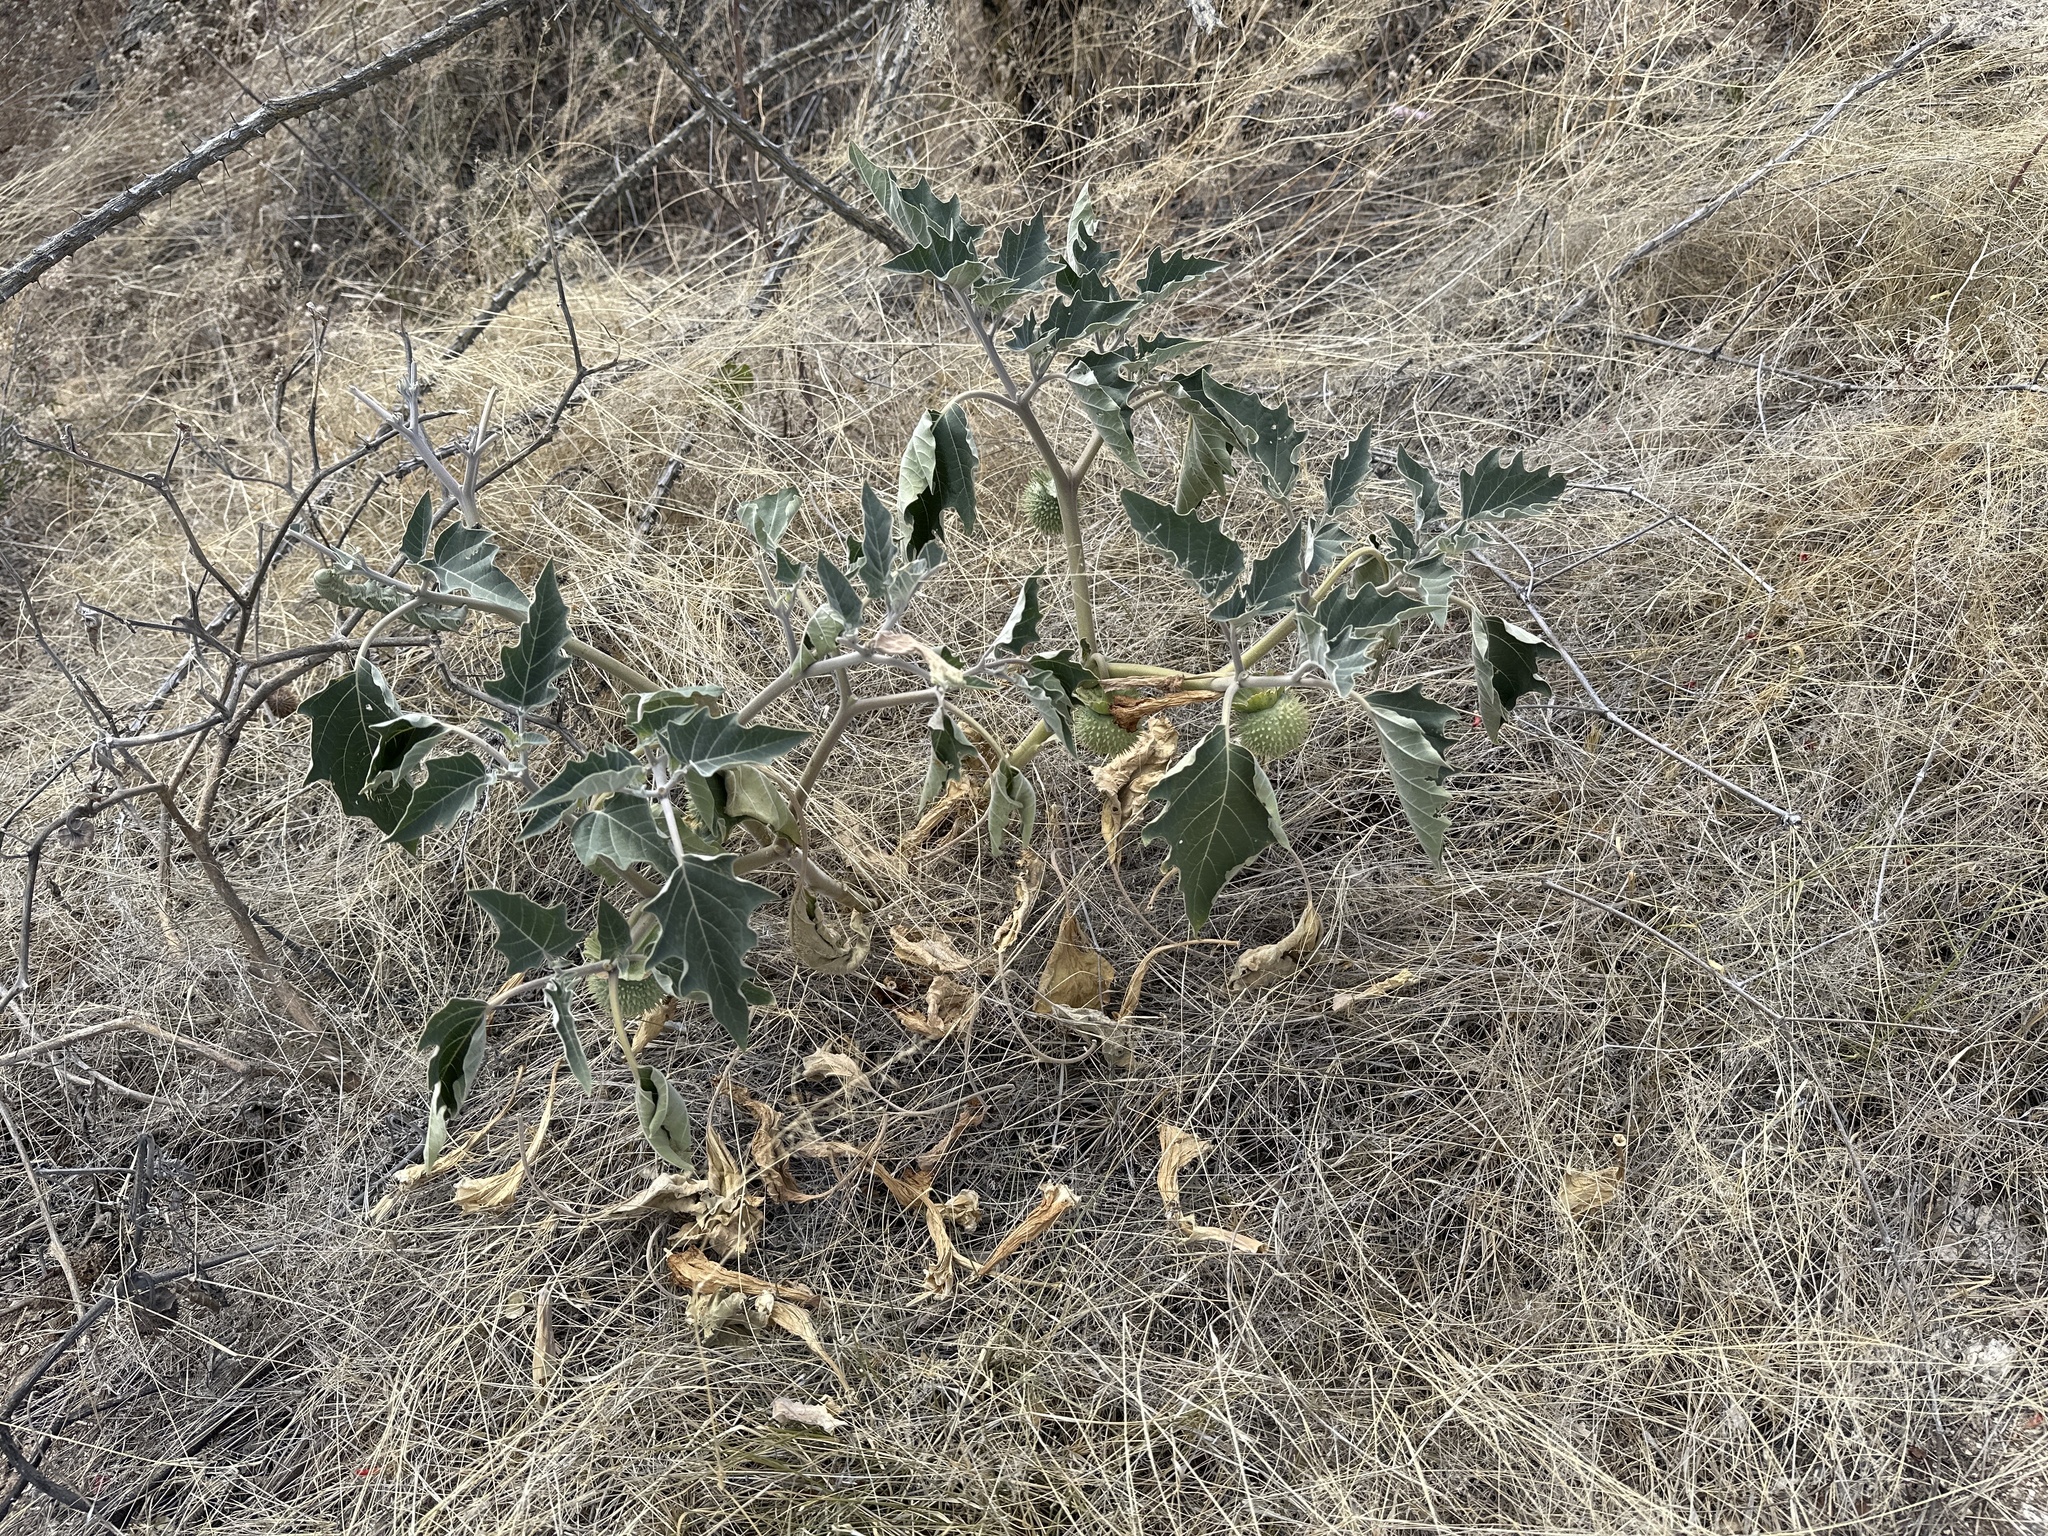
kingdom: Plantae
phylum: Tracheophyta
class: Magnoliopsida
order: Solanales
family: Solanaceae
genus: Datura
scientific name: Datura wrightii
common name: Sacred thorn-apple
